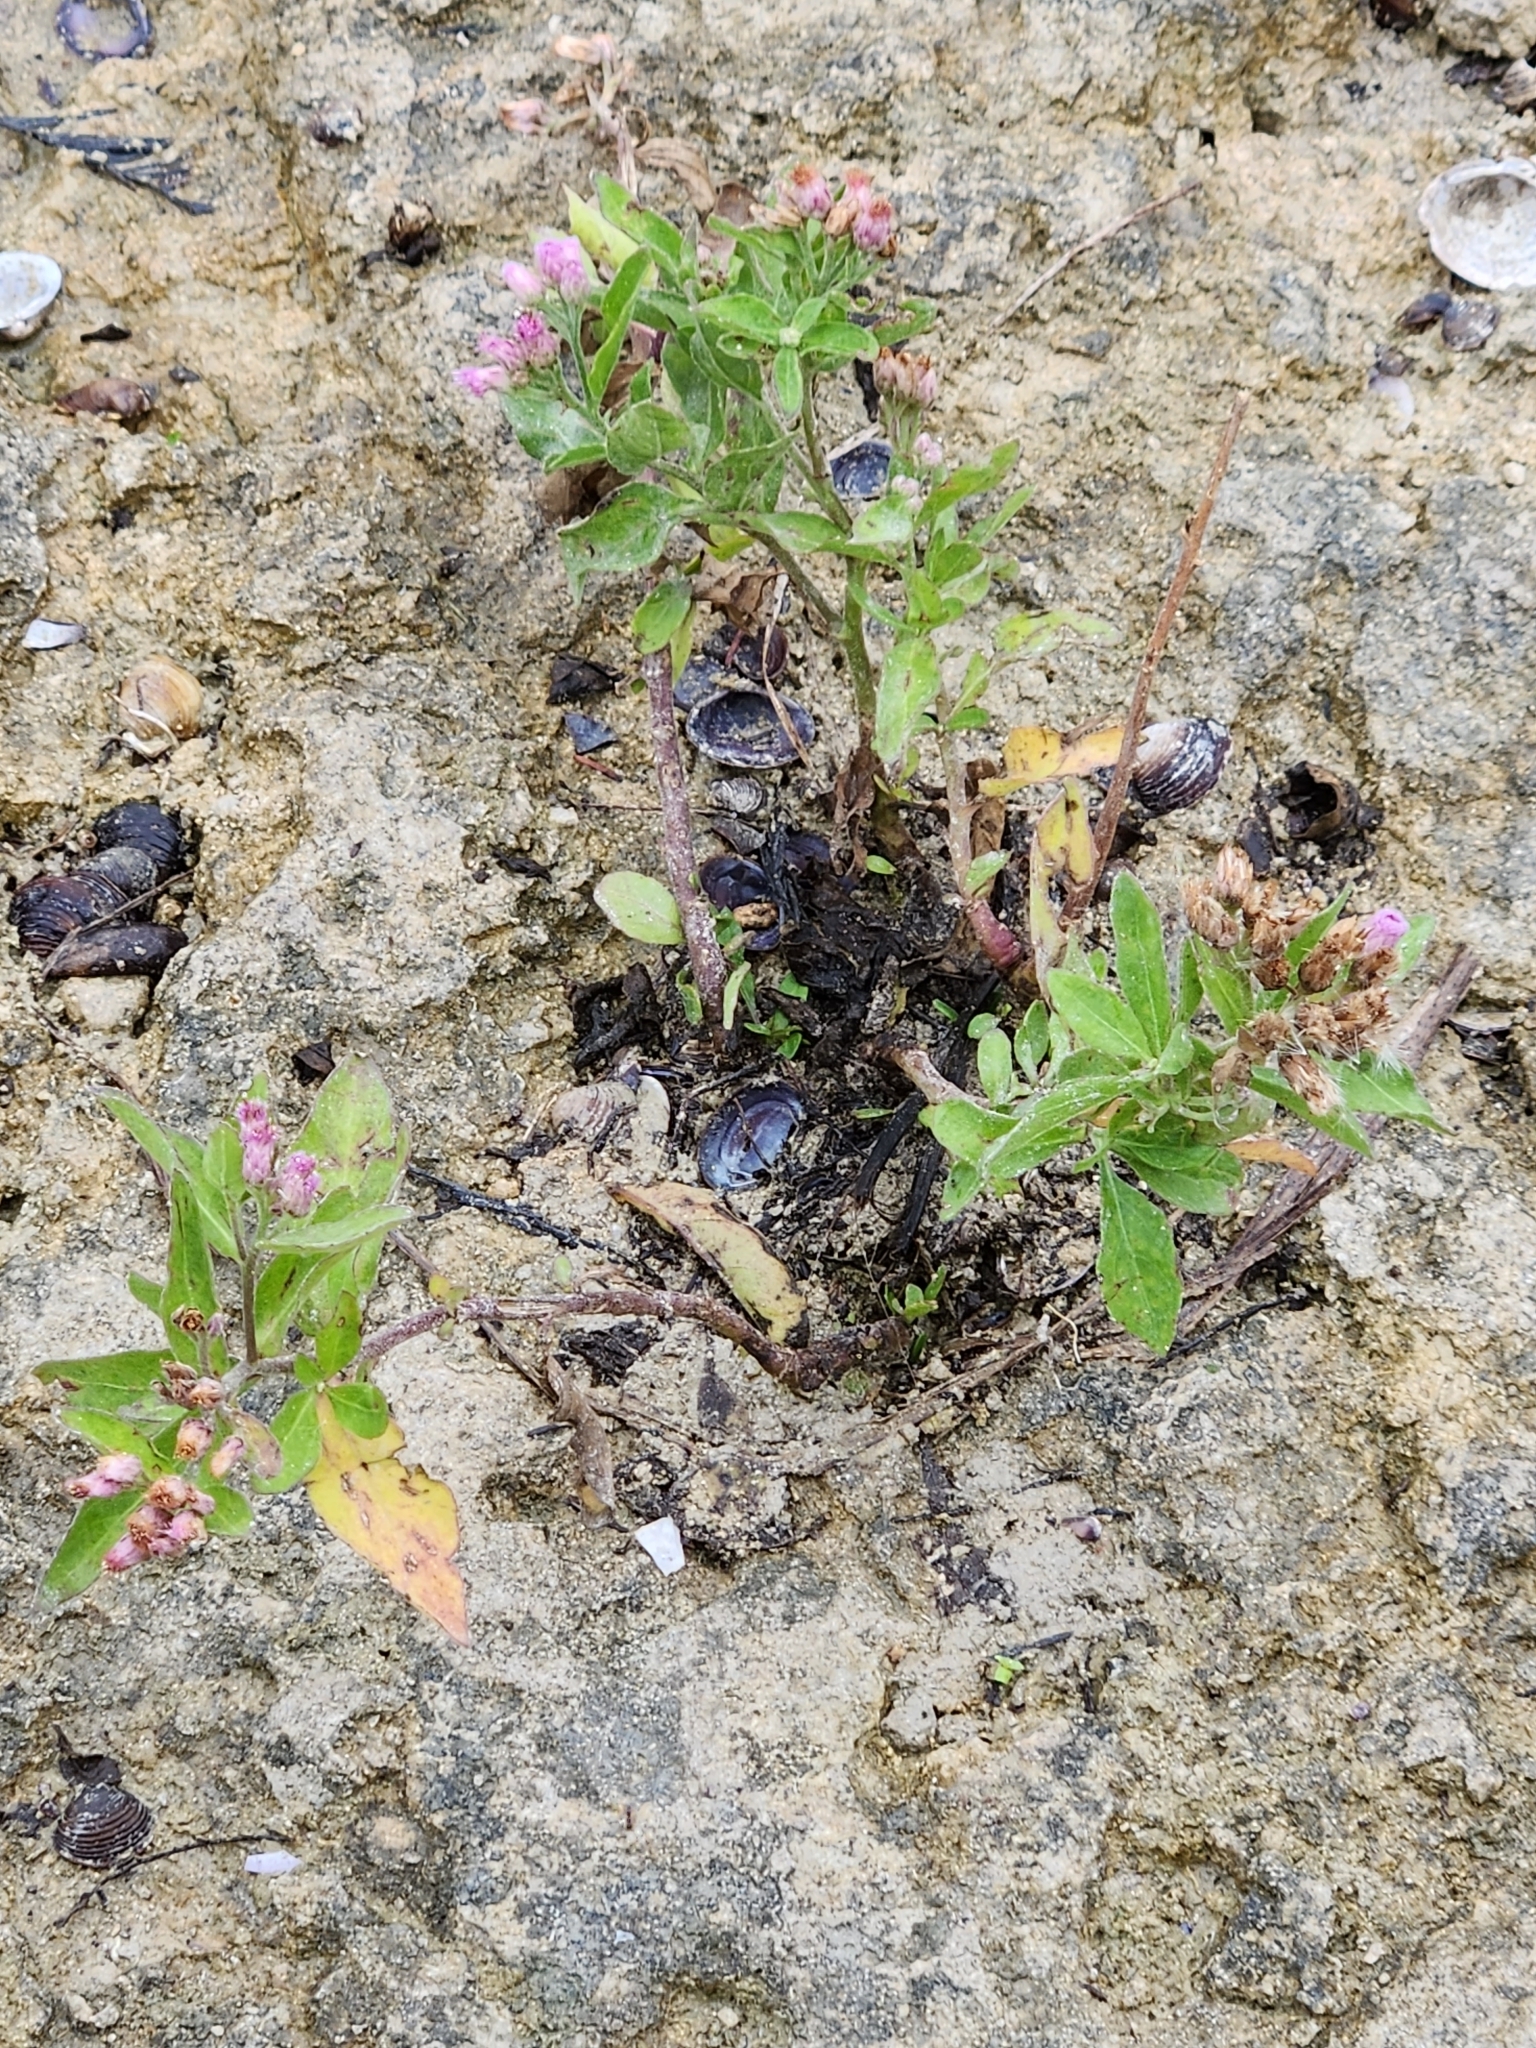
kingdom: Plantae
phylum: Tracheophyta
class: Magnoliopsida
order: Asterales
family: Asteraceae
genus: Pluchea
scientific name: Pluchea odorata
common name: Saltmarsh fleabane
